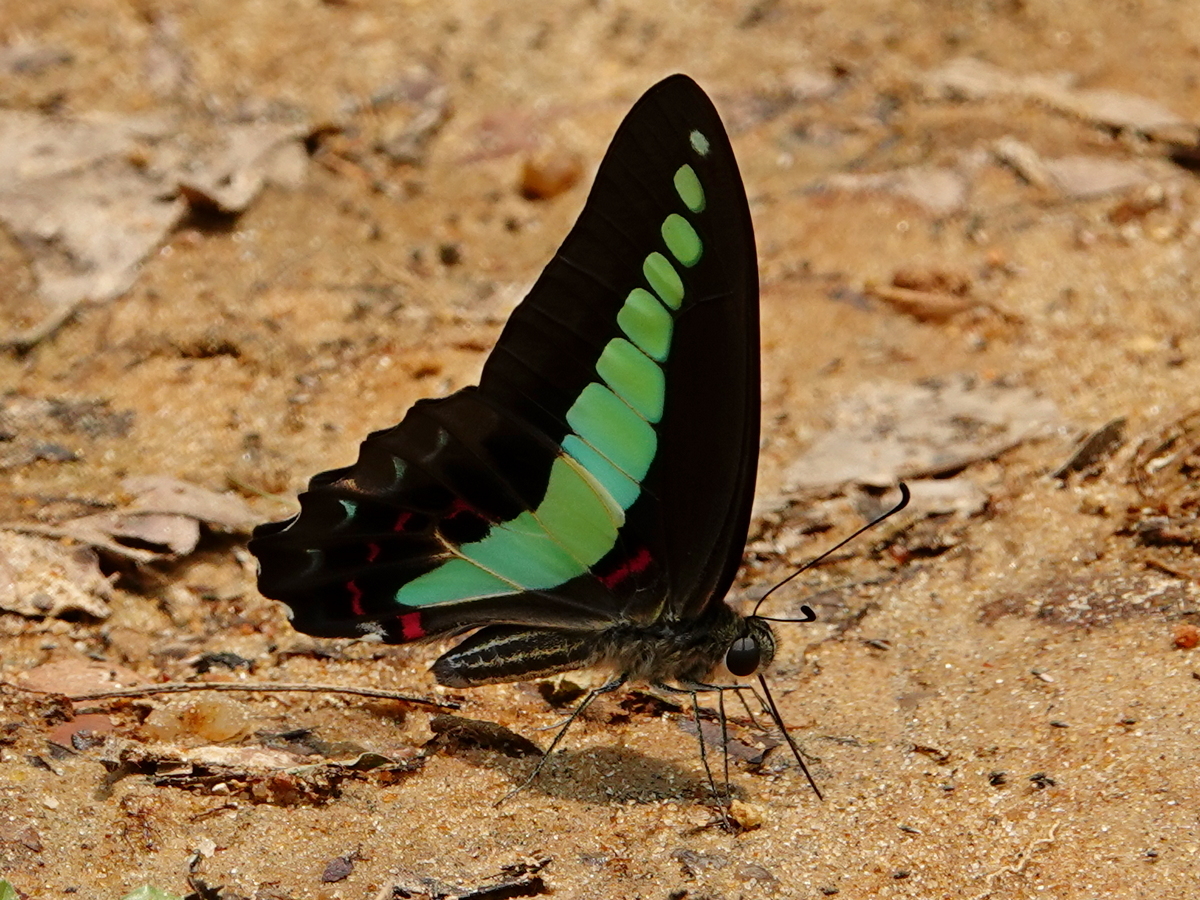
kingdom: Fungi
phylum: Ascomycota
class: Sordariomycetes
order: Microascales
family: Microascaceae
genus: Graphium
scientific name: Graphium sarpedon
